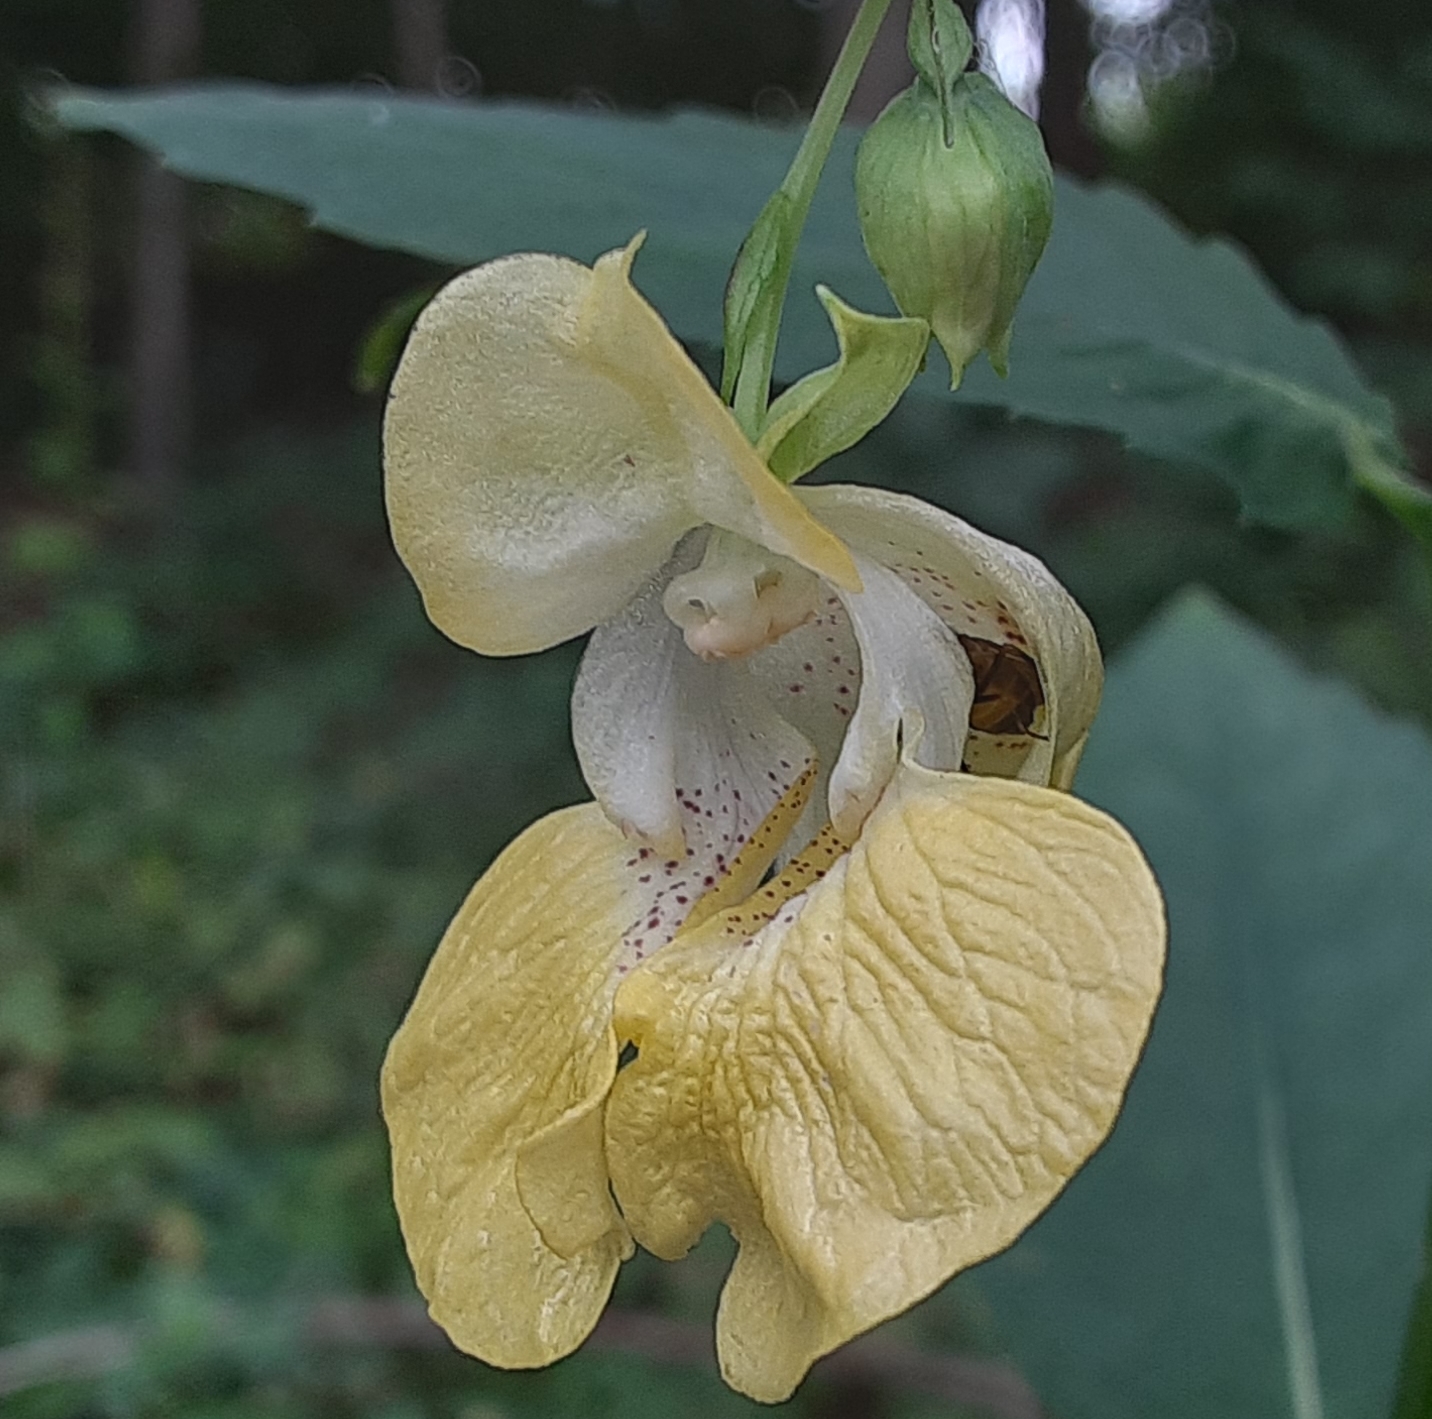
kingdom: Plantae
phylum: Tracheophyta
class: Magnoliopsida
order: Ericales
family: Balsaminaceae
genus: Impatiens
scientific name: Impatiens pallida
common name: Pale snapweed
